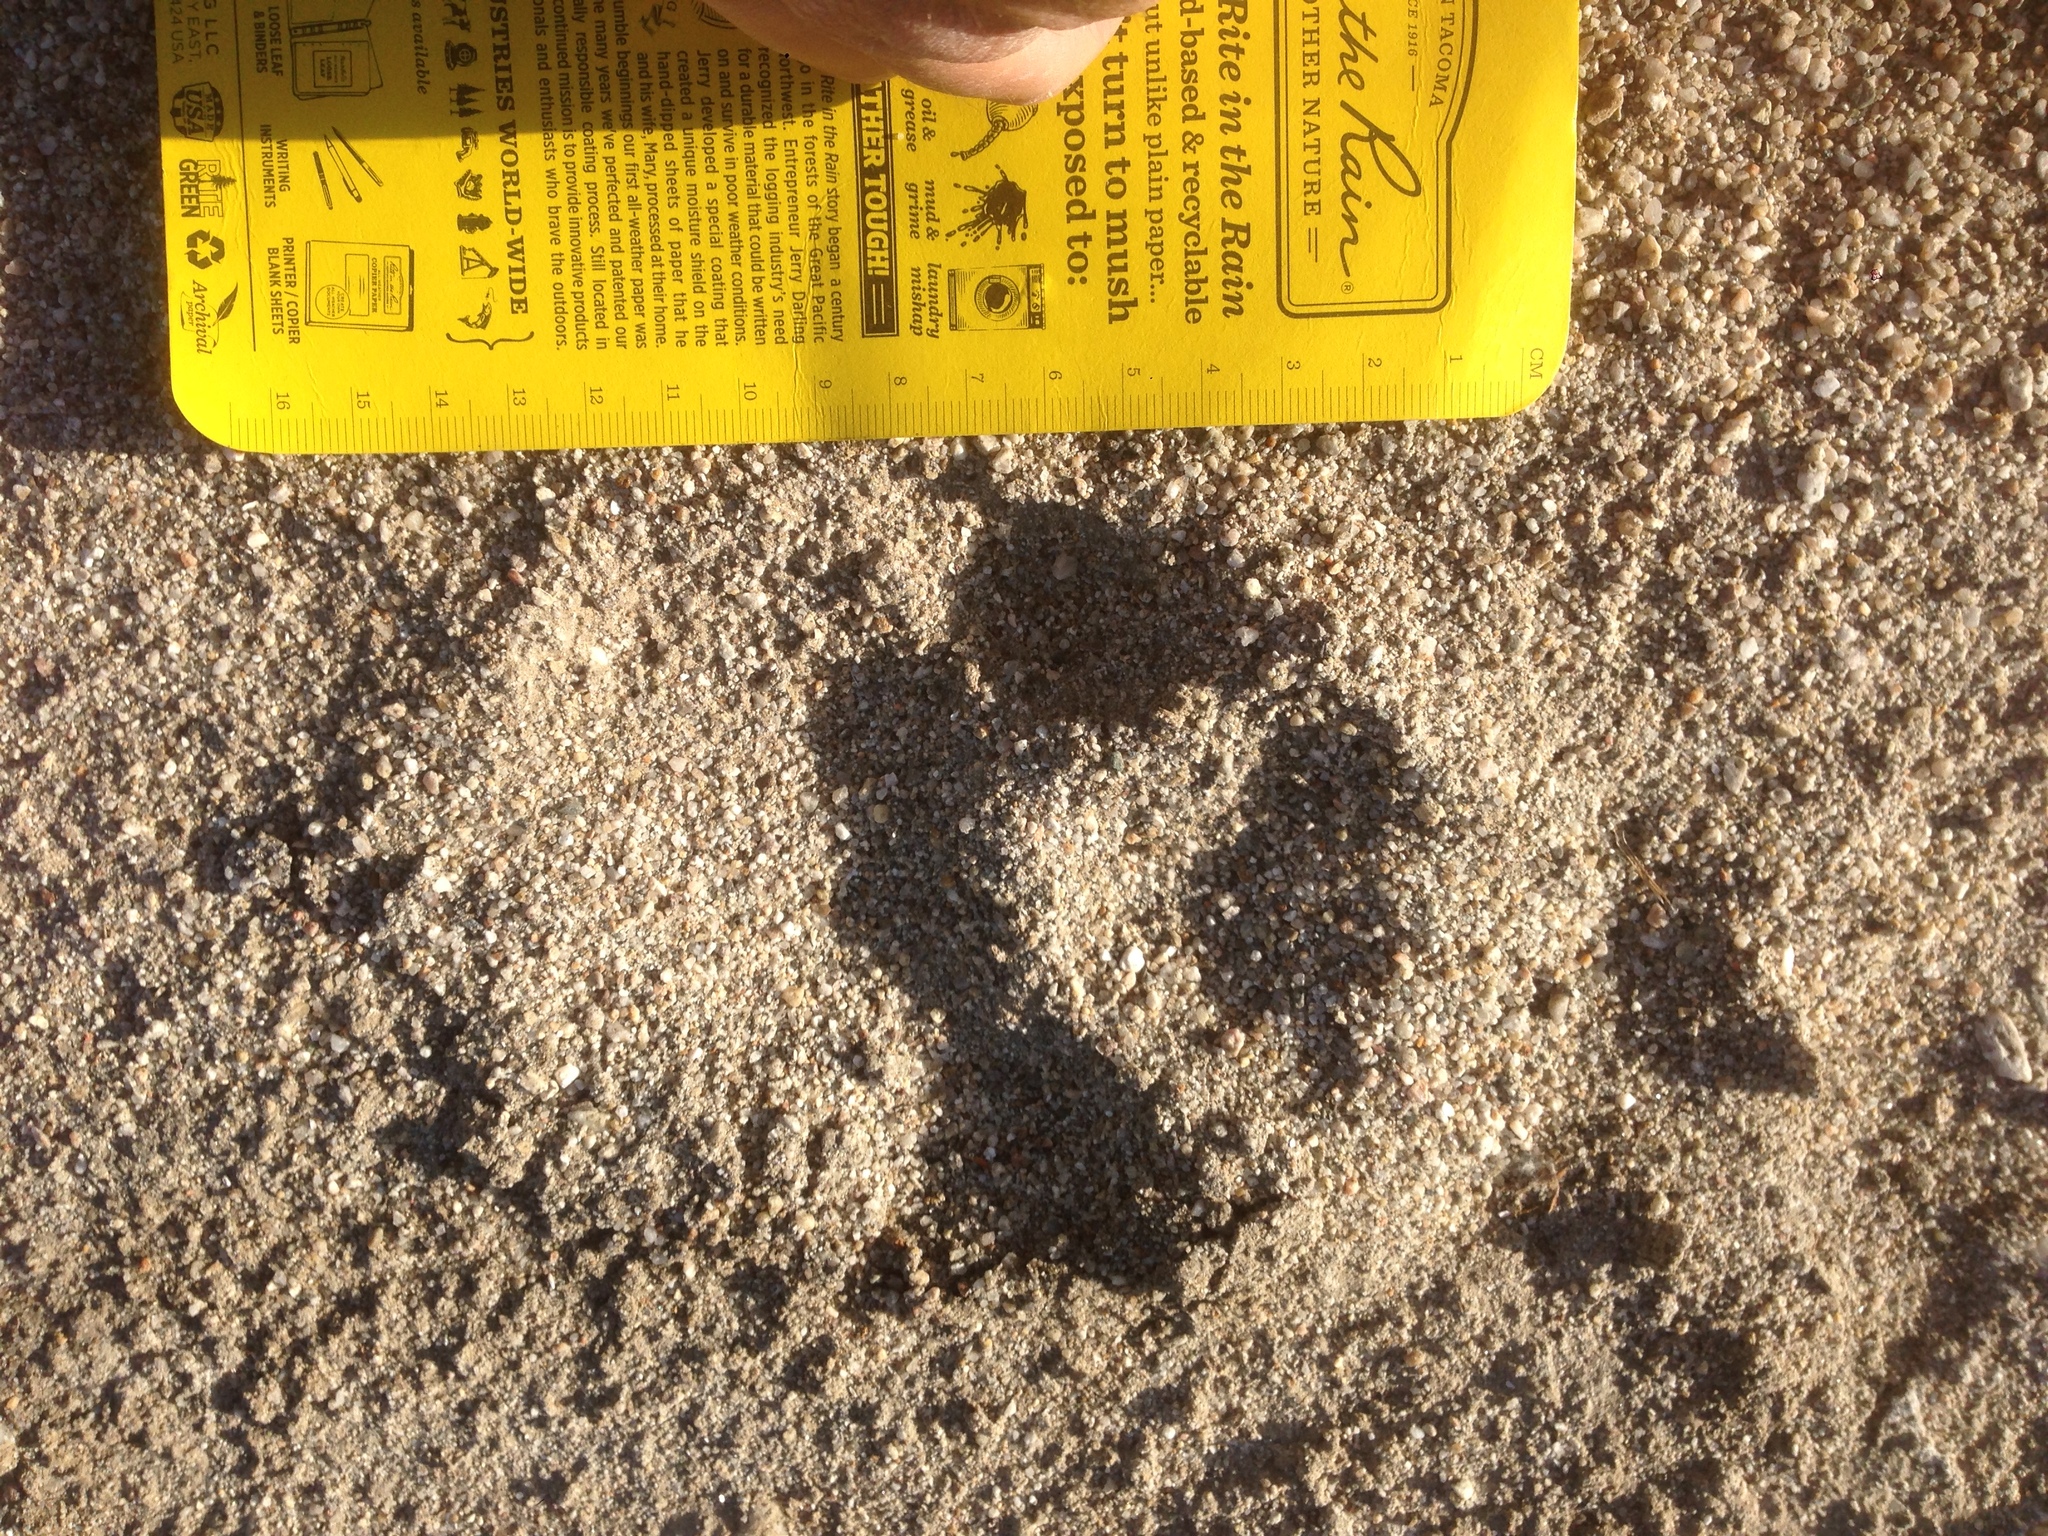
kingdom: Animalia
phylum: Chordata
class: Mammalia
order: Carnivora
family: Felidae
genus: Puma
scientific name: Puma concolor
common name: Puma
